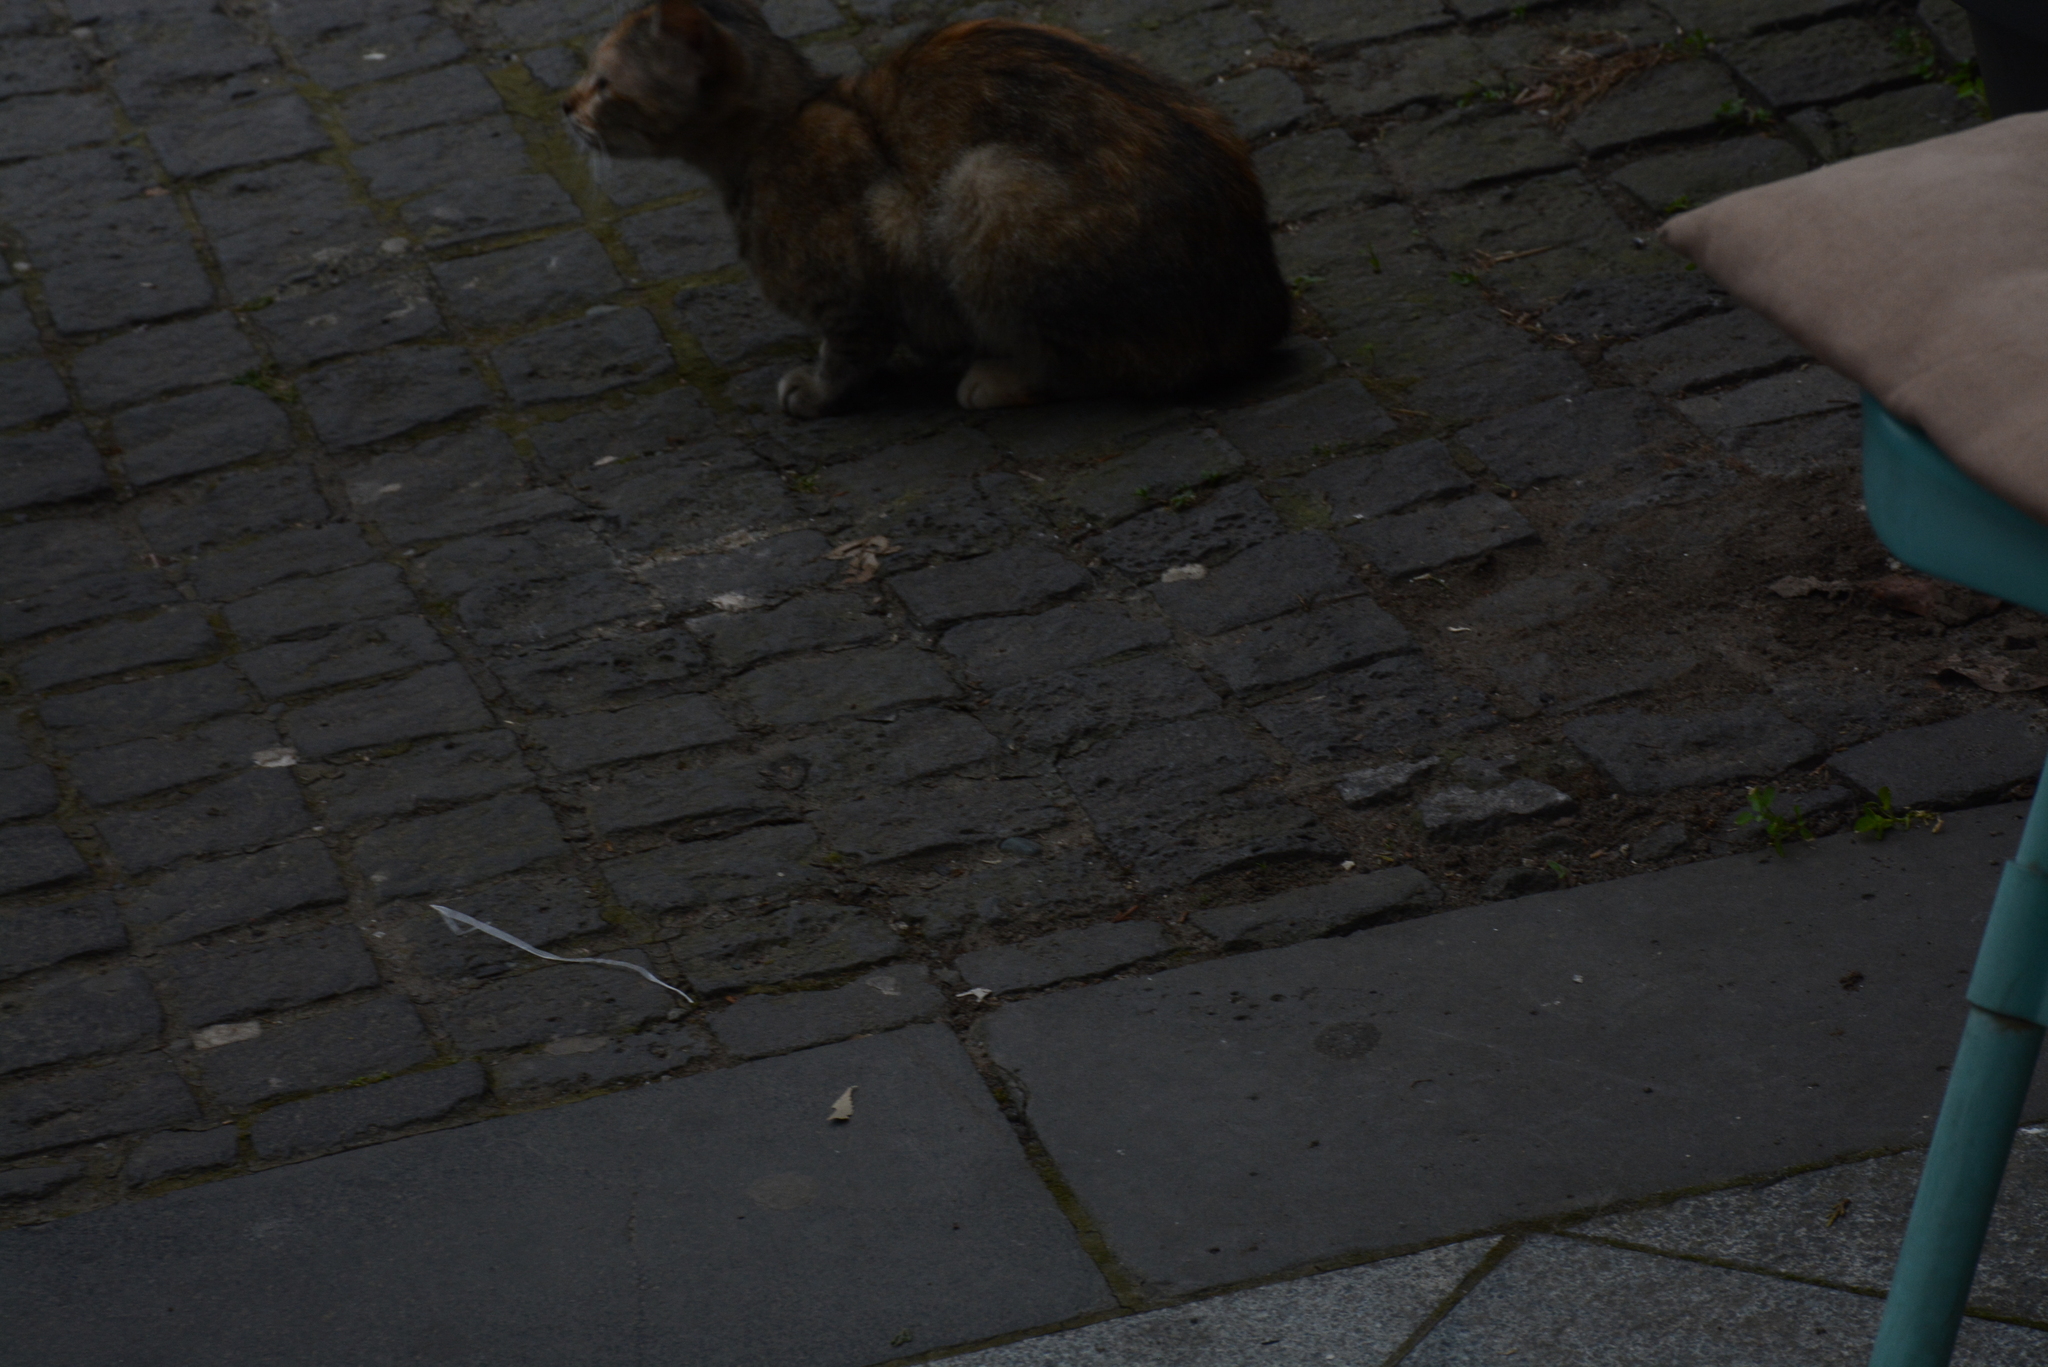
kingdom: Animalia
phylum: Chordata
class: Mammalia
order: Carnivora
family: Felidae
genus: Felis
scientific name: Felis catus
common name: Domestic cat
